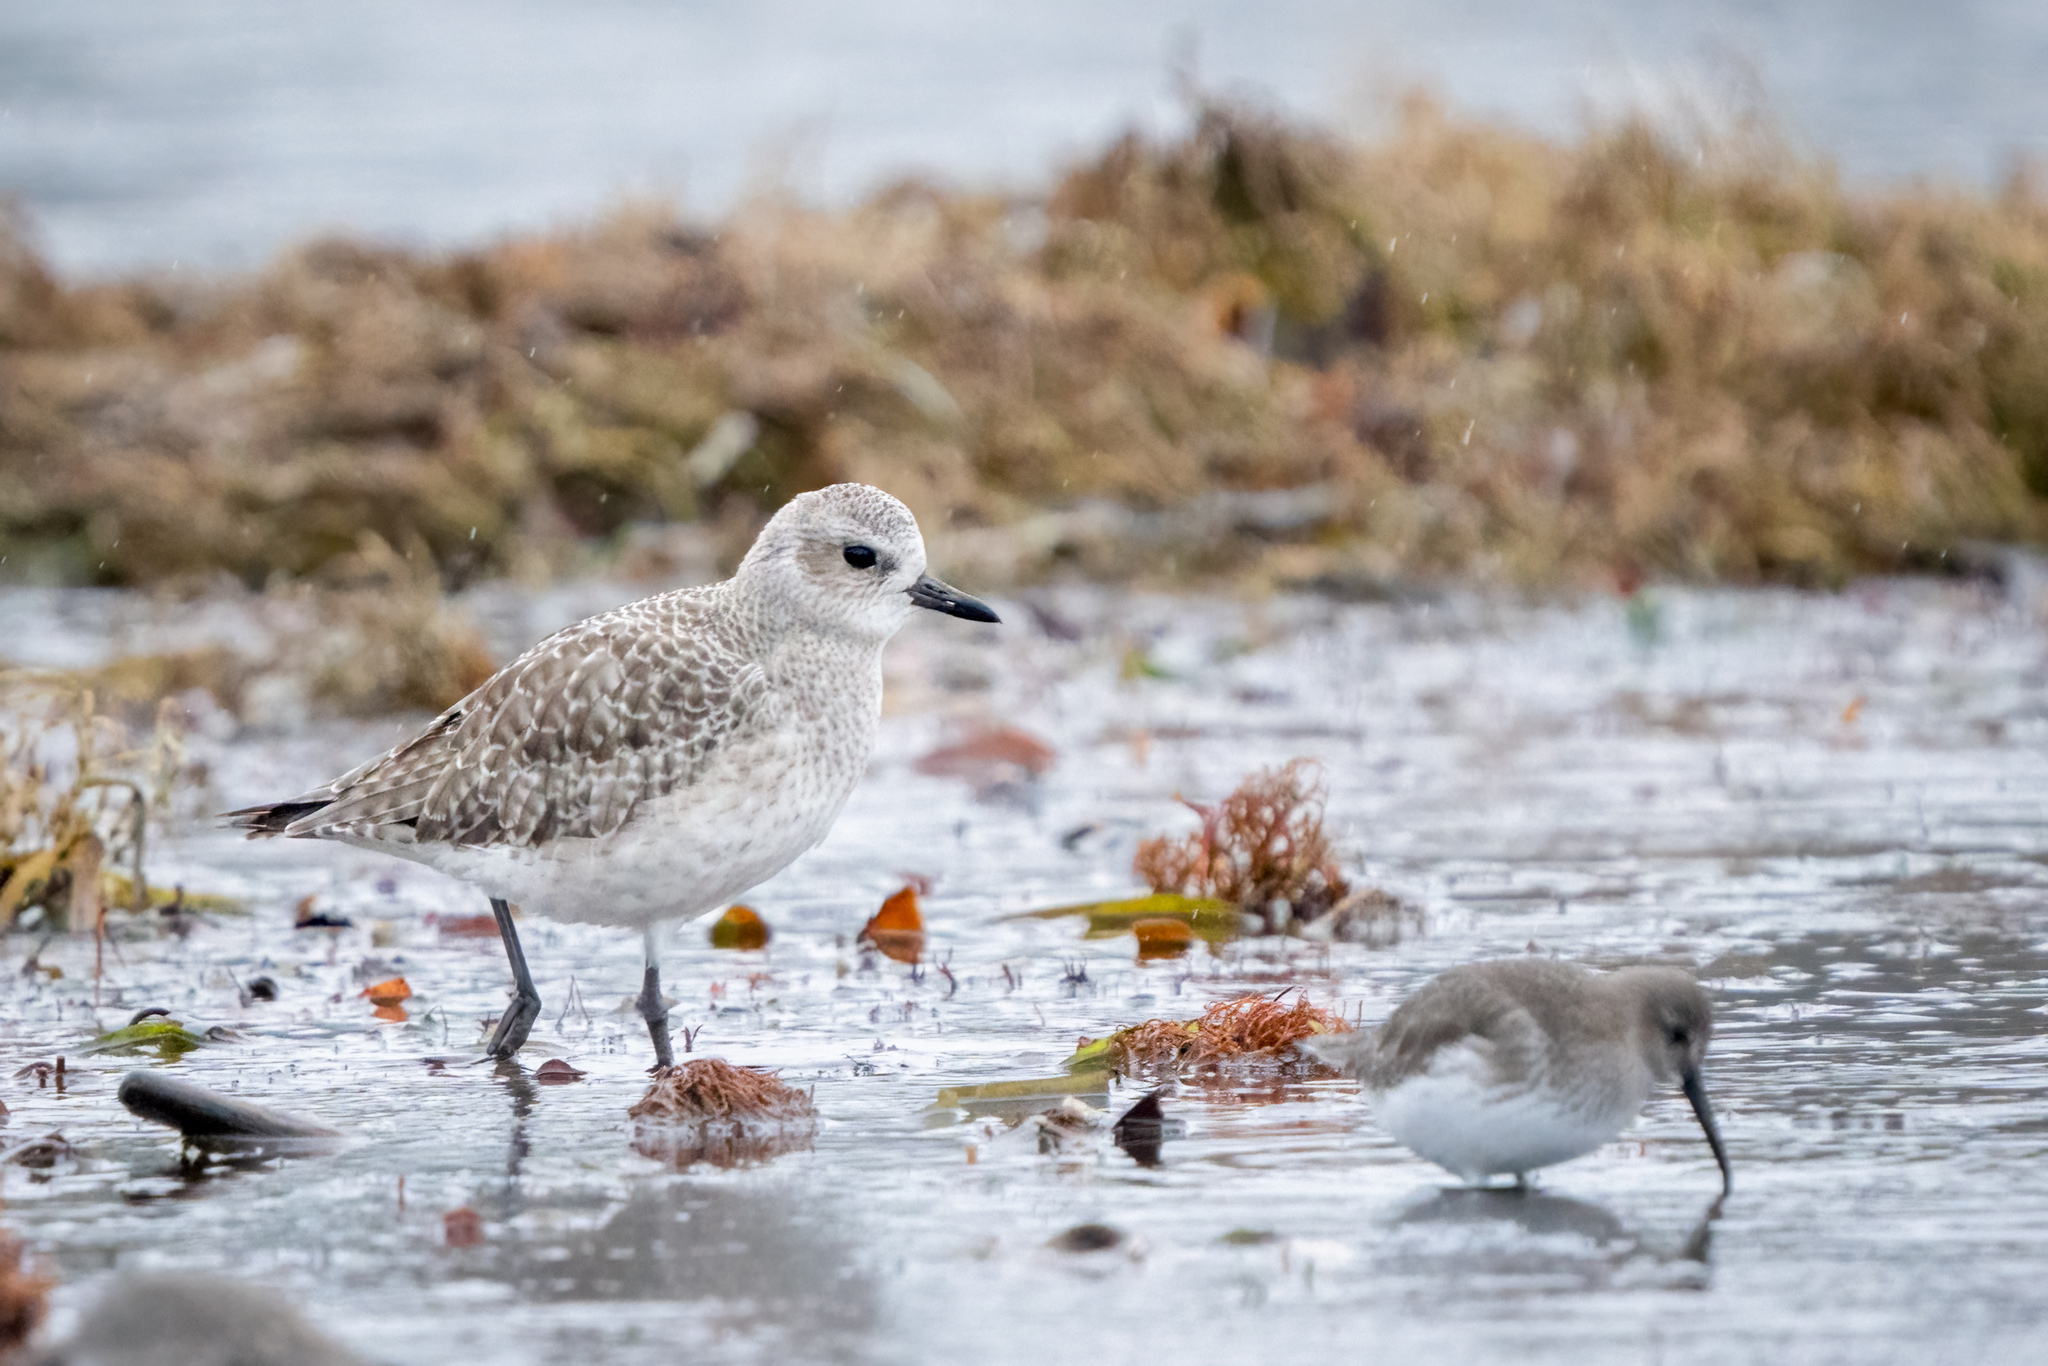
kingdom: Animalia
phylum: Chordata
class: Aves
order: Charadriiformes
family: Charadriidae
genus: Pluvialis
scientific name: Pluvialis squatarola
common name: Grey plover
